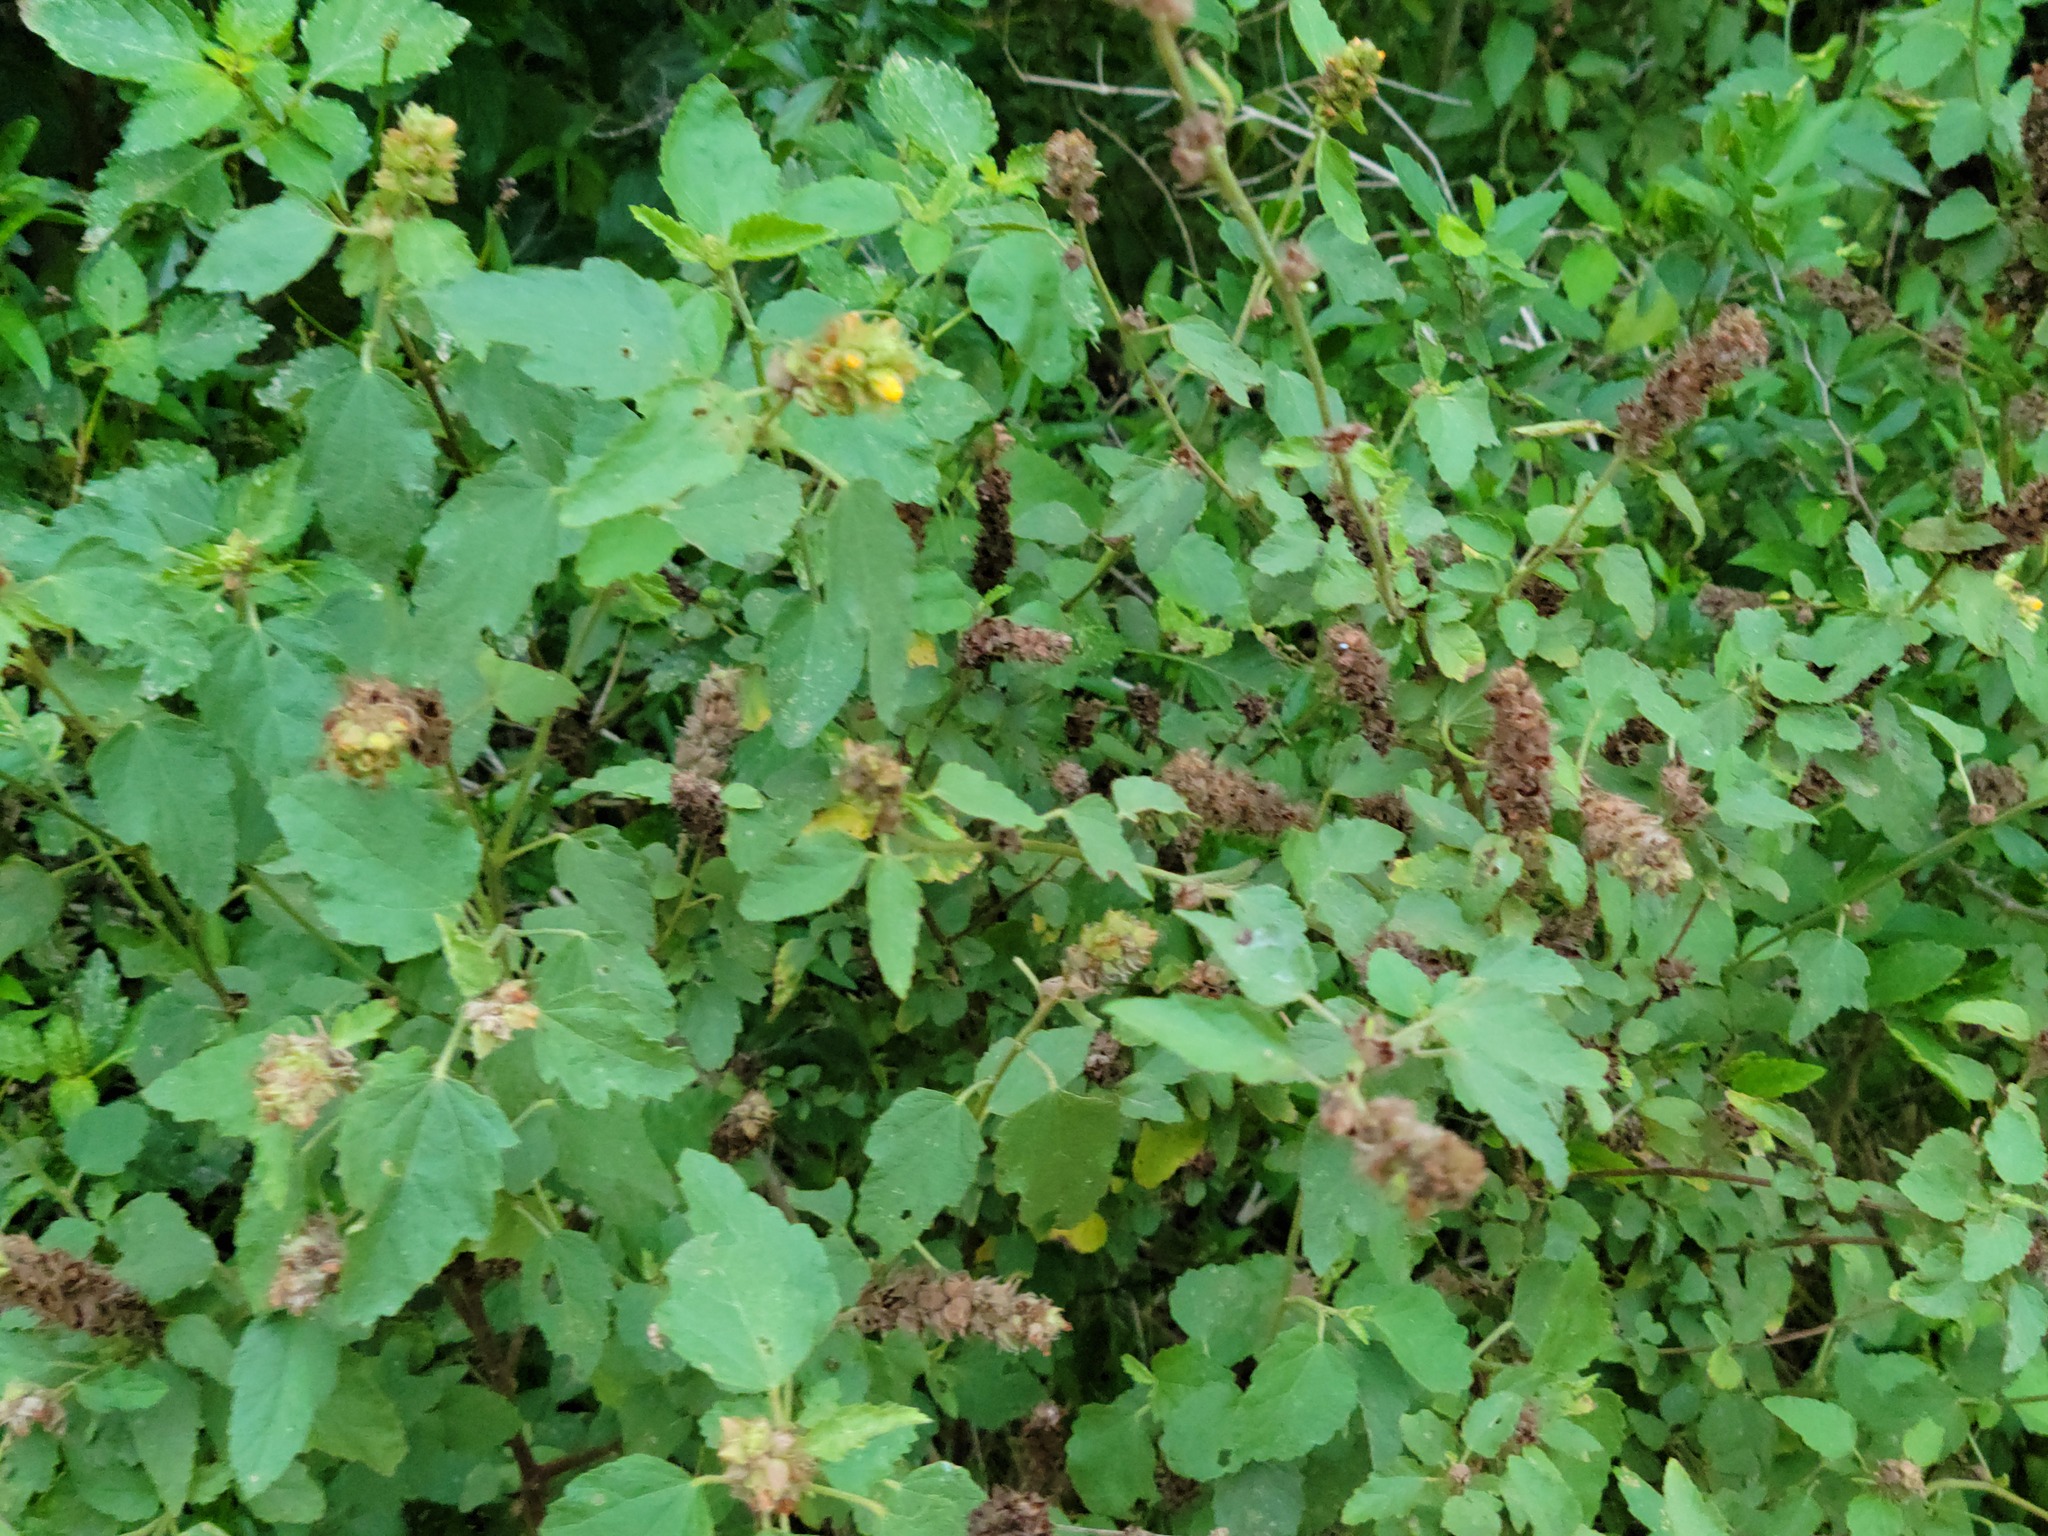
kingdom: Plantae
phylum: Tracheophyta
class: Magnoliopsida
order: Malvales
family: Malvaceae
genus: Malvastrum
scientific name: Malvastrum americanum
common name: Spiked malvastrum
